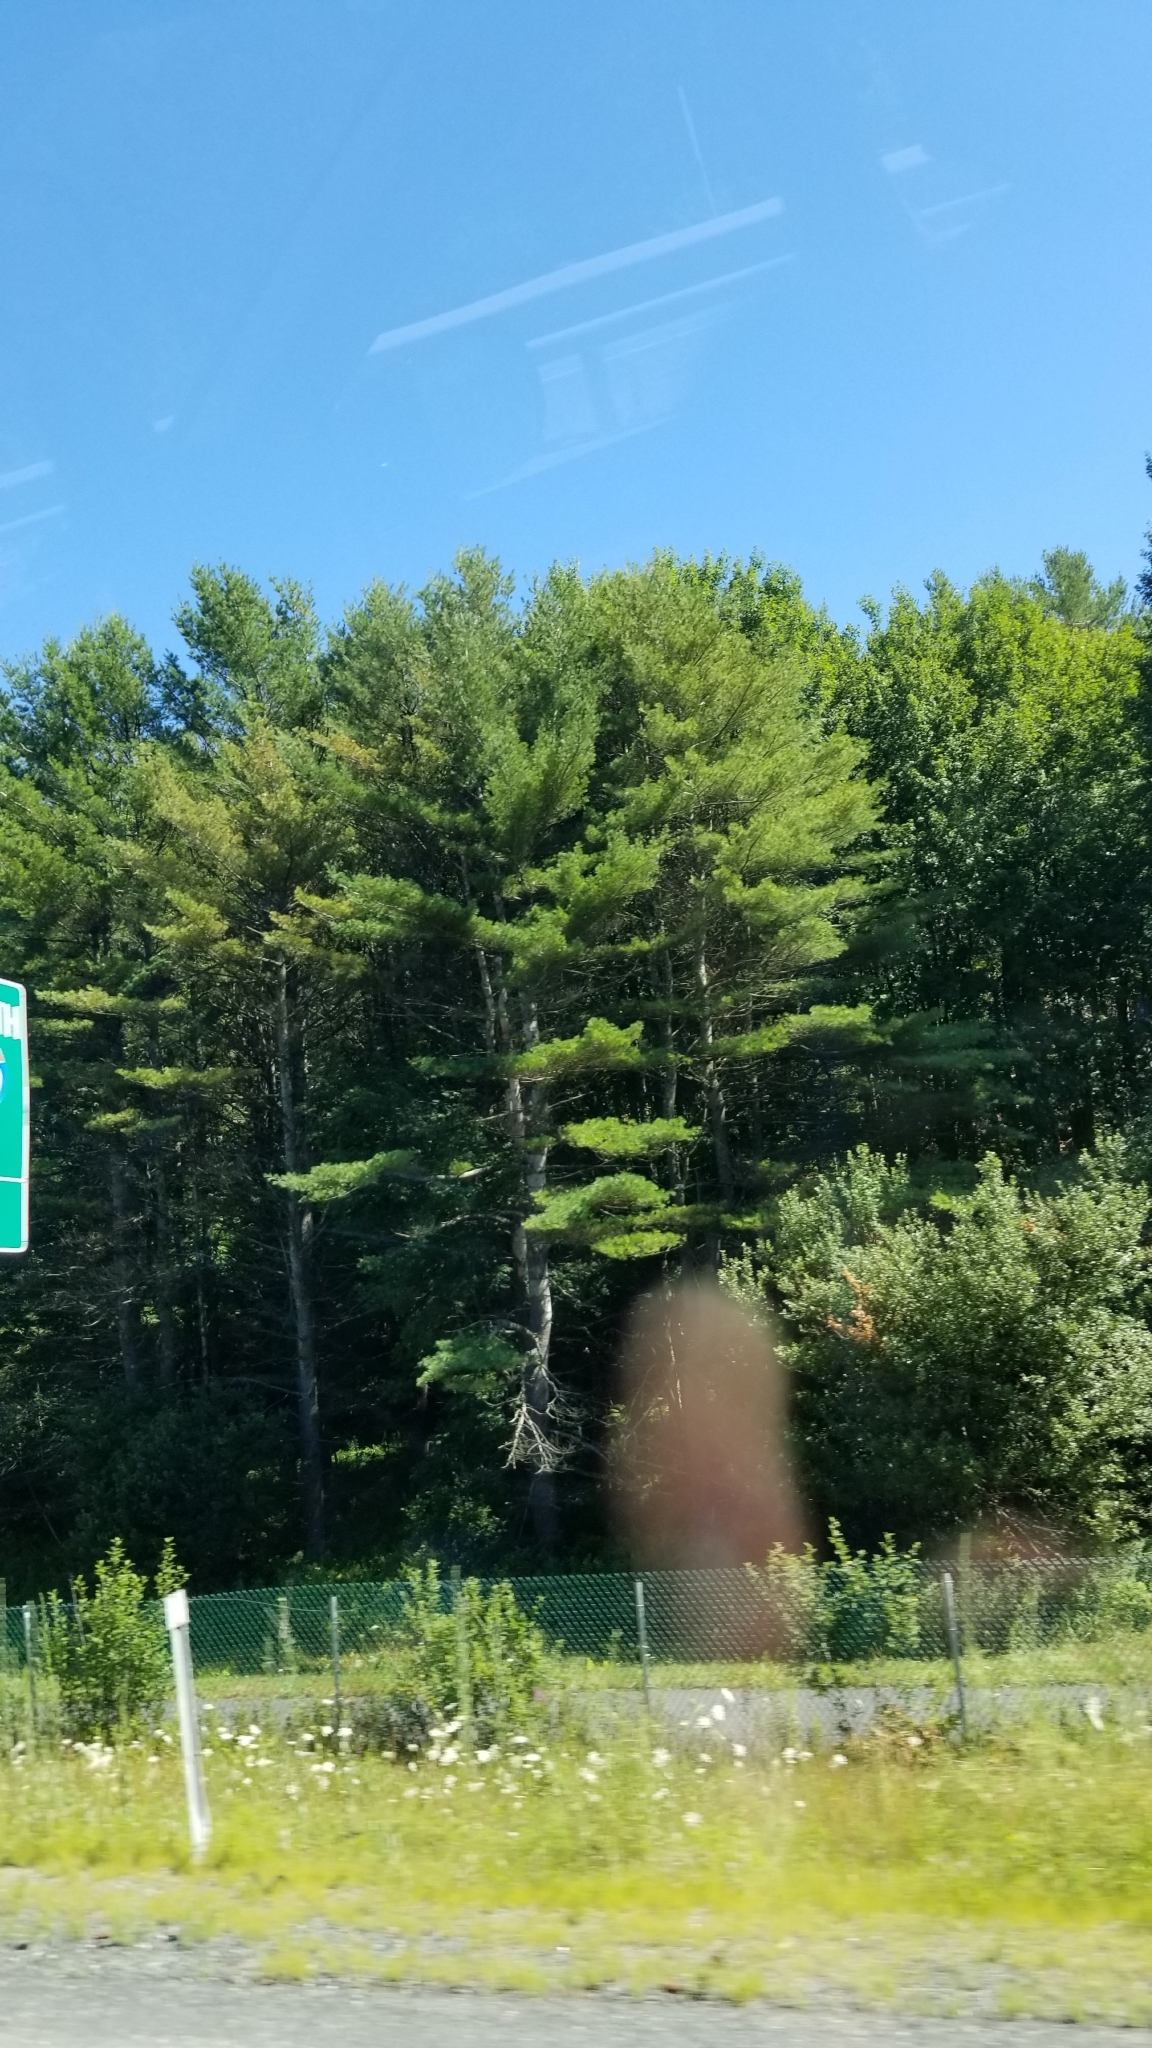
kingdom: Plantae
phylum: Tracheophyta
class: Pinopsida
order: Pinales
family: Pinaceae
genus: Pinus
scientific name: Pinus strobus
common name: Weymouth pine
